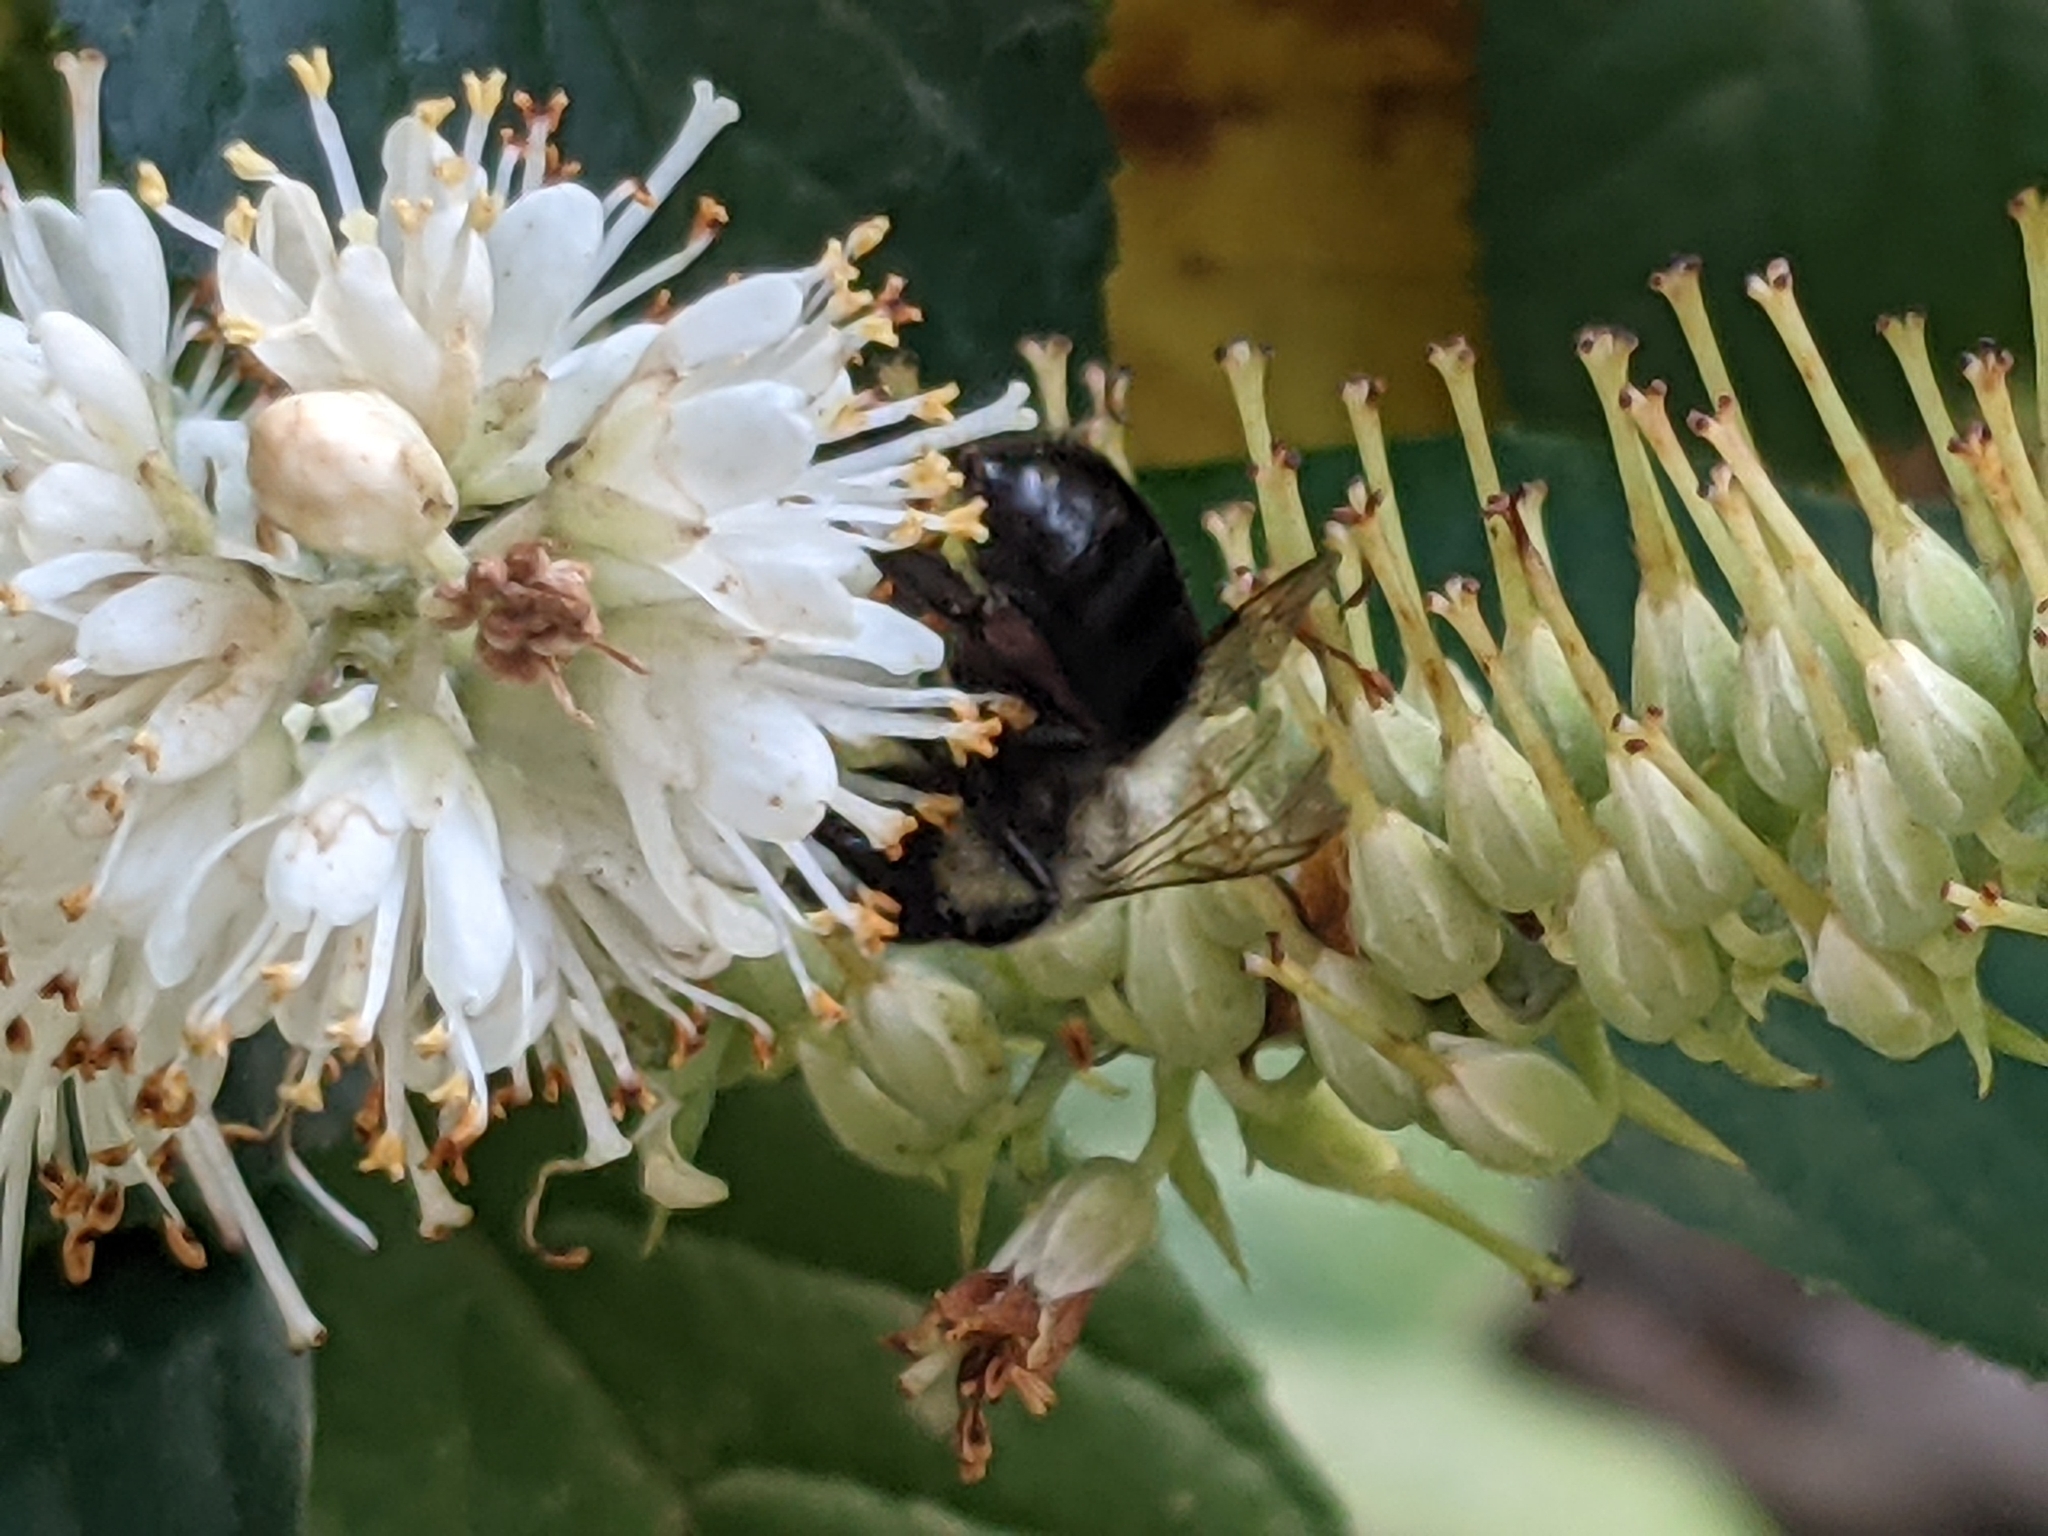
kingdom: Animalia
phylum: Arthropoda
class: Insecta
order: Hymenoptera
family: Apidae
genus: Bombus
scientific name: Bombus impatiens
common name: Common eastern bumble bee
